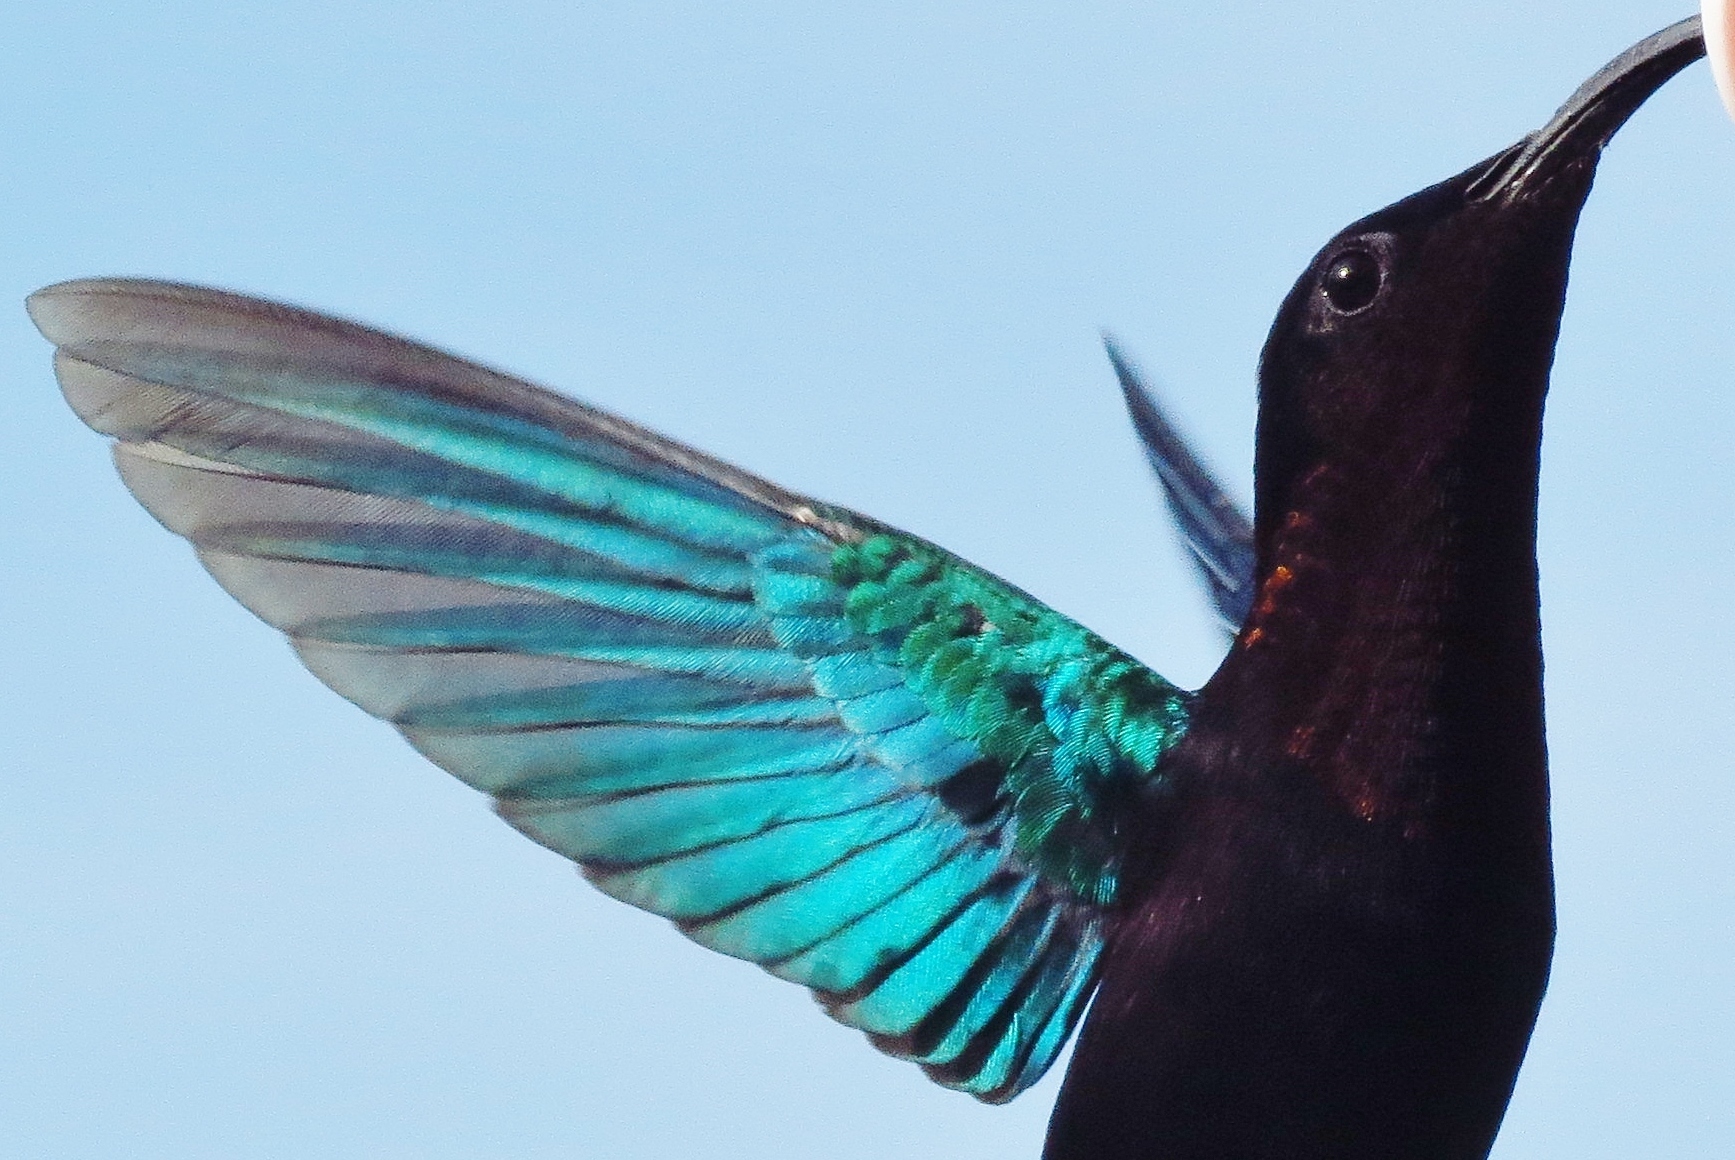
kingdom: Animalia
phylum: Chordata
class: Aves
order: Apodiformes
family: Trochilidae
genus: Eulampis
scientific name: Eulampis jugularis
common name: Purple-throated carib
